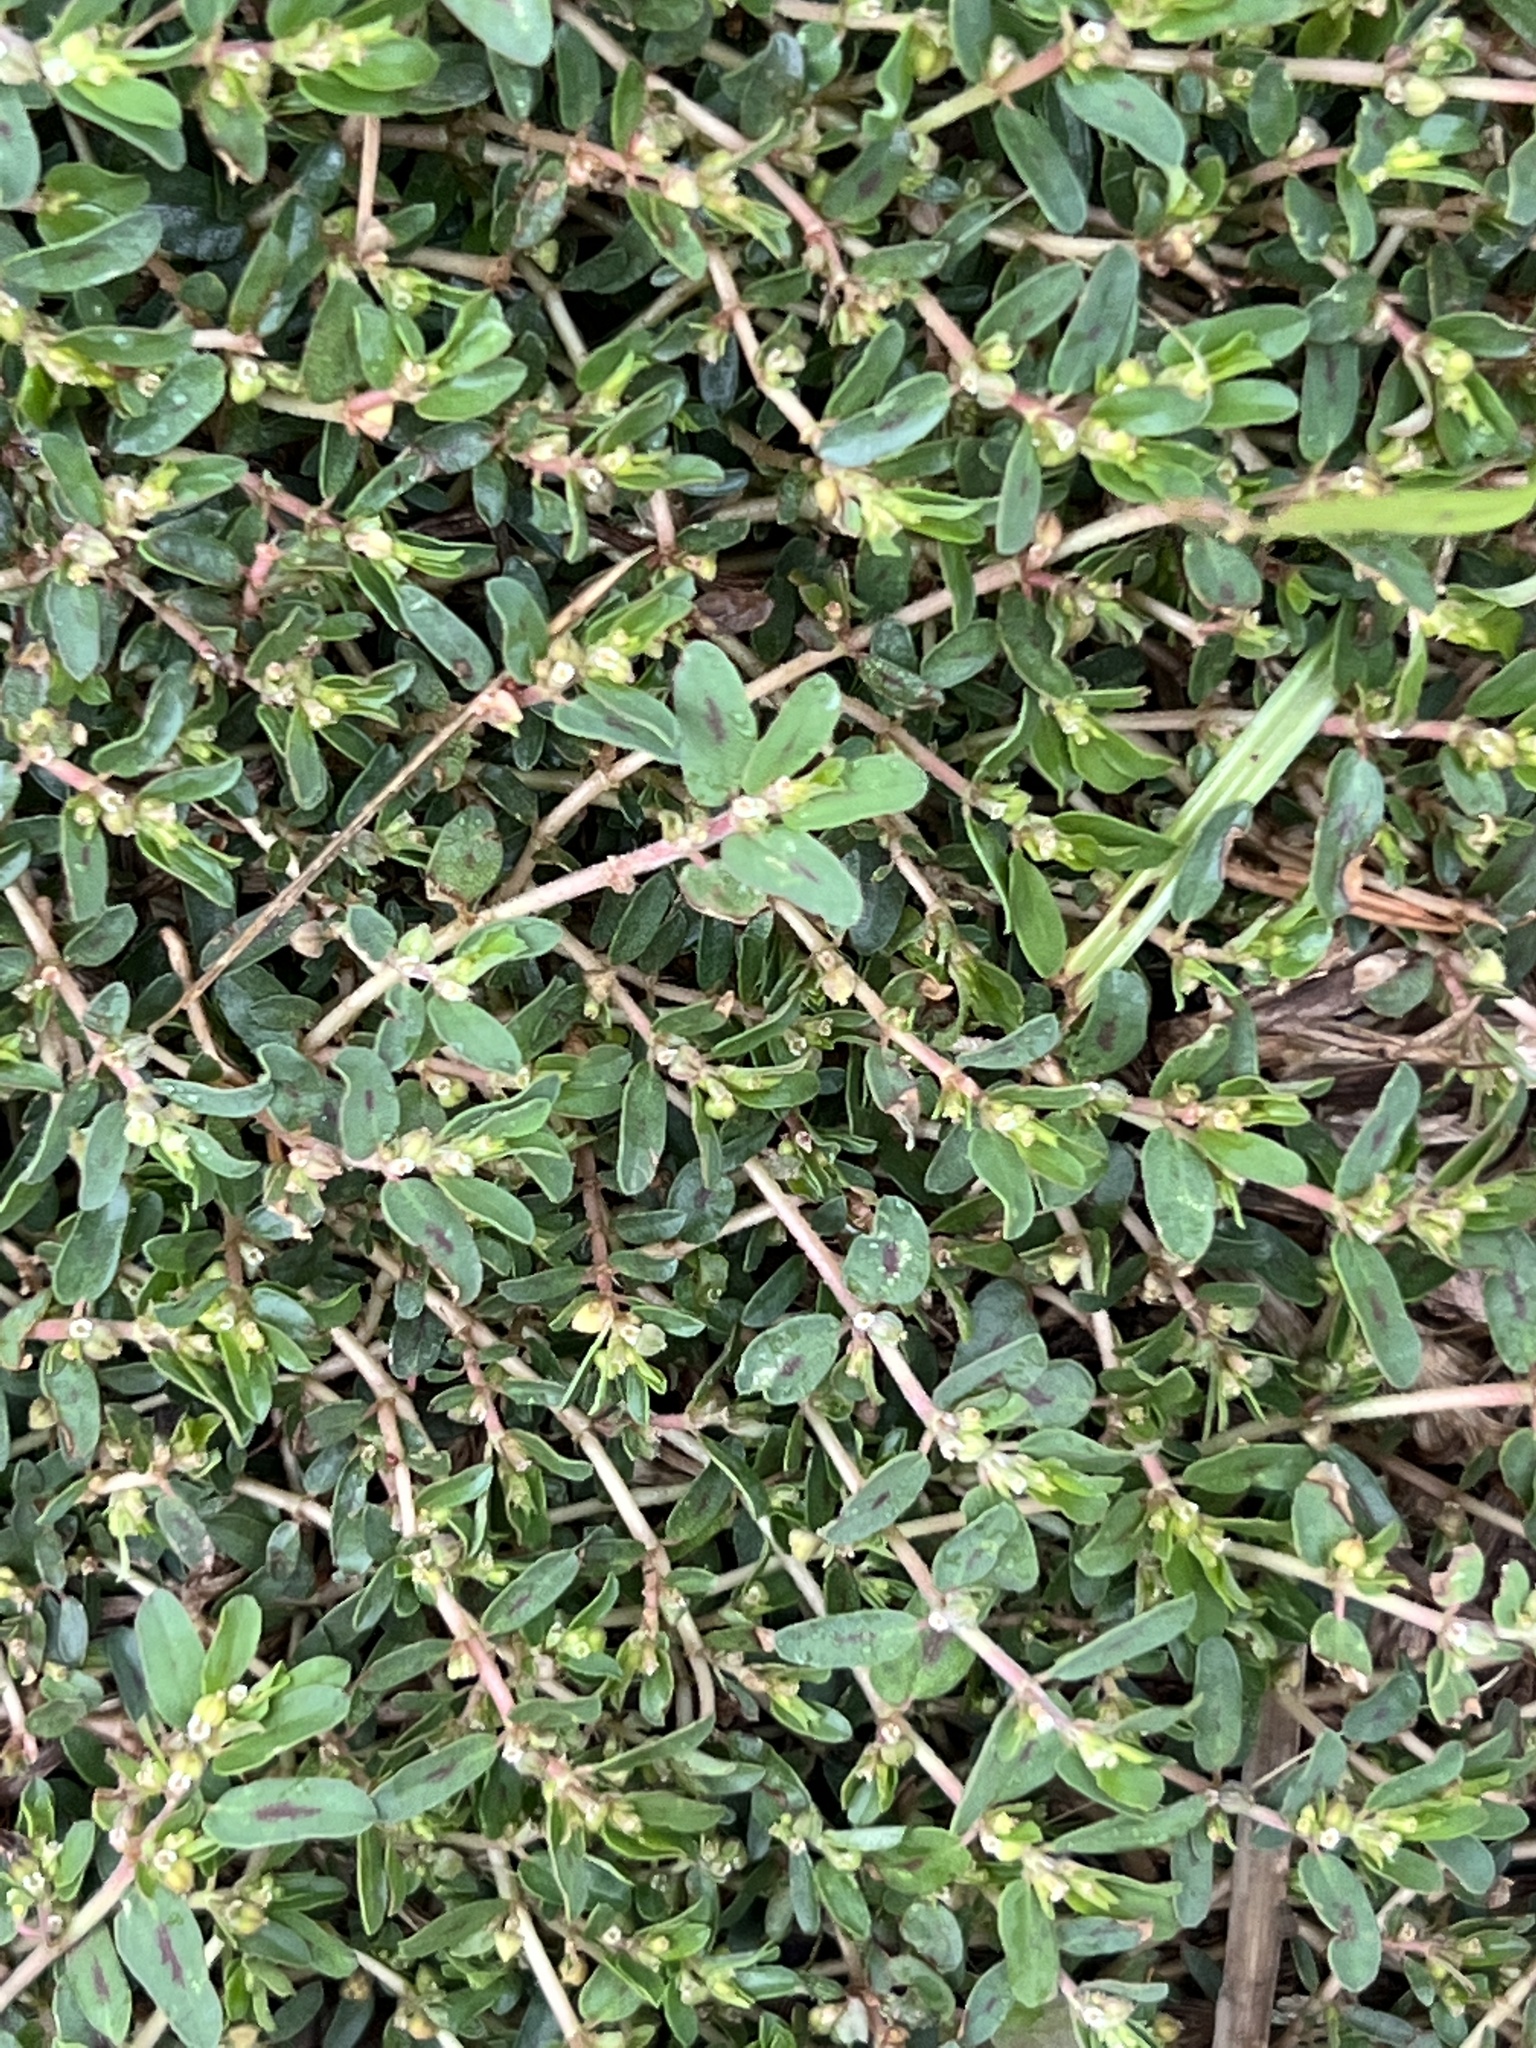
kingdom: Plantae
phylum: Tracheophyta
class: Magnoliopsida
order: Malpighiales
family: Euphorbiaceae
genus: Euphorbia
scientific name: Euphorbia maculata
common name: Spotted spurge
